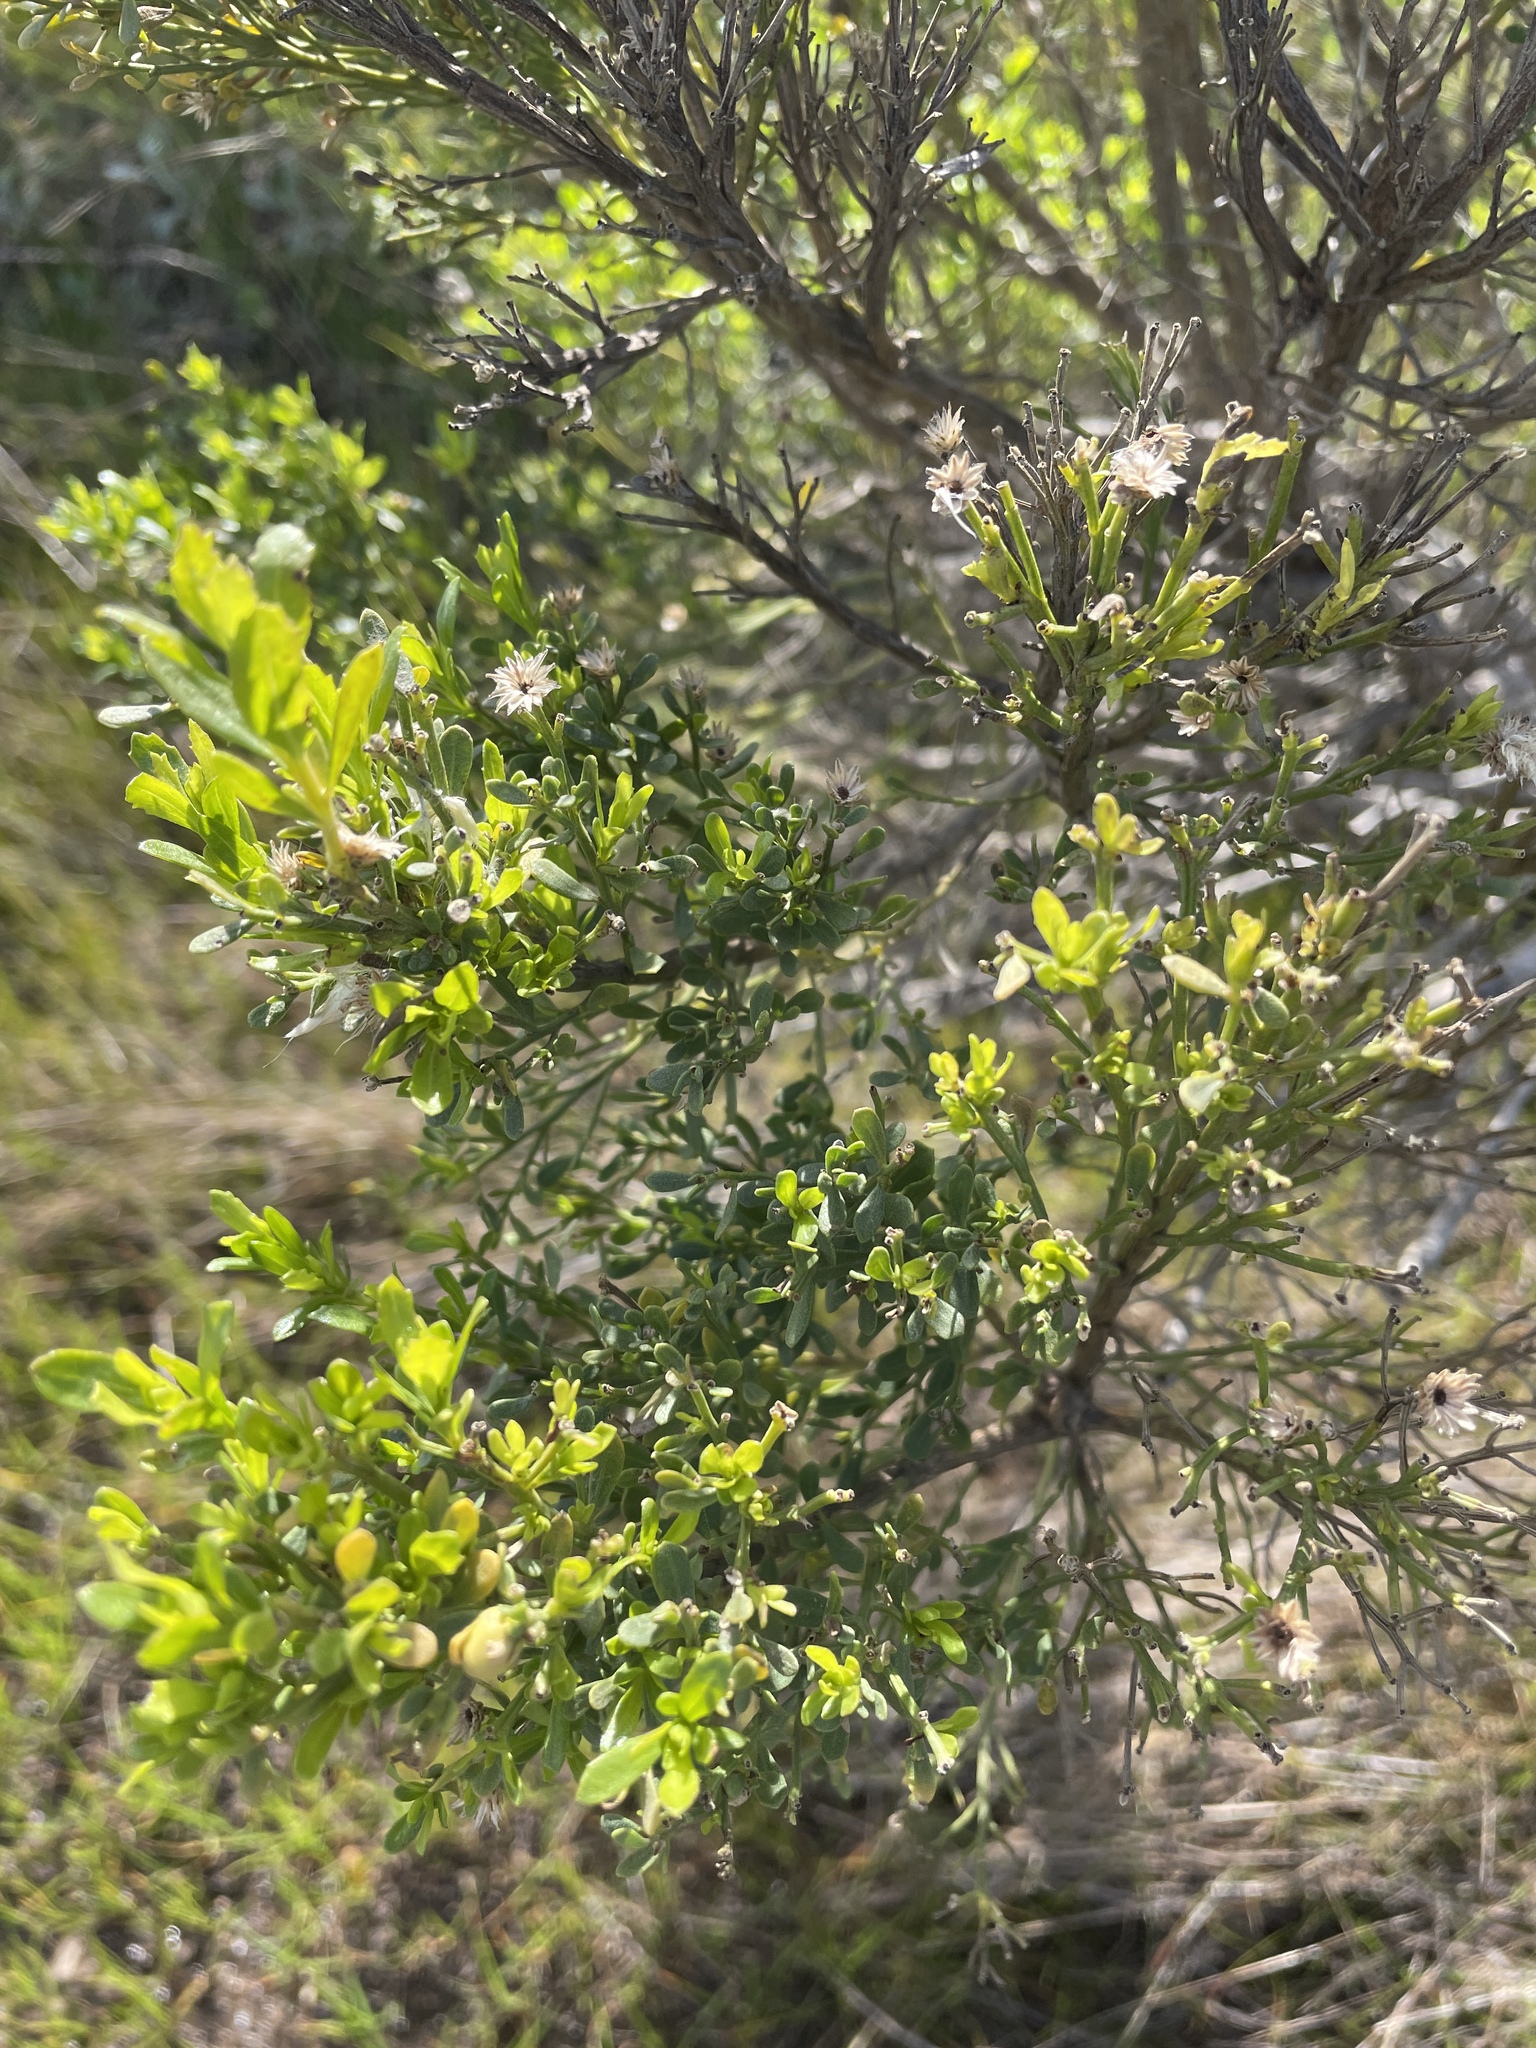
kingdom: Plantae
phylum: Tracheophyta
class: Magnoliopsida
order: Asterales
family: Asteraceae
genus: Baccharis
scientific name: Baccharis pilularis
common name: Coyotebrush
